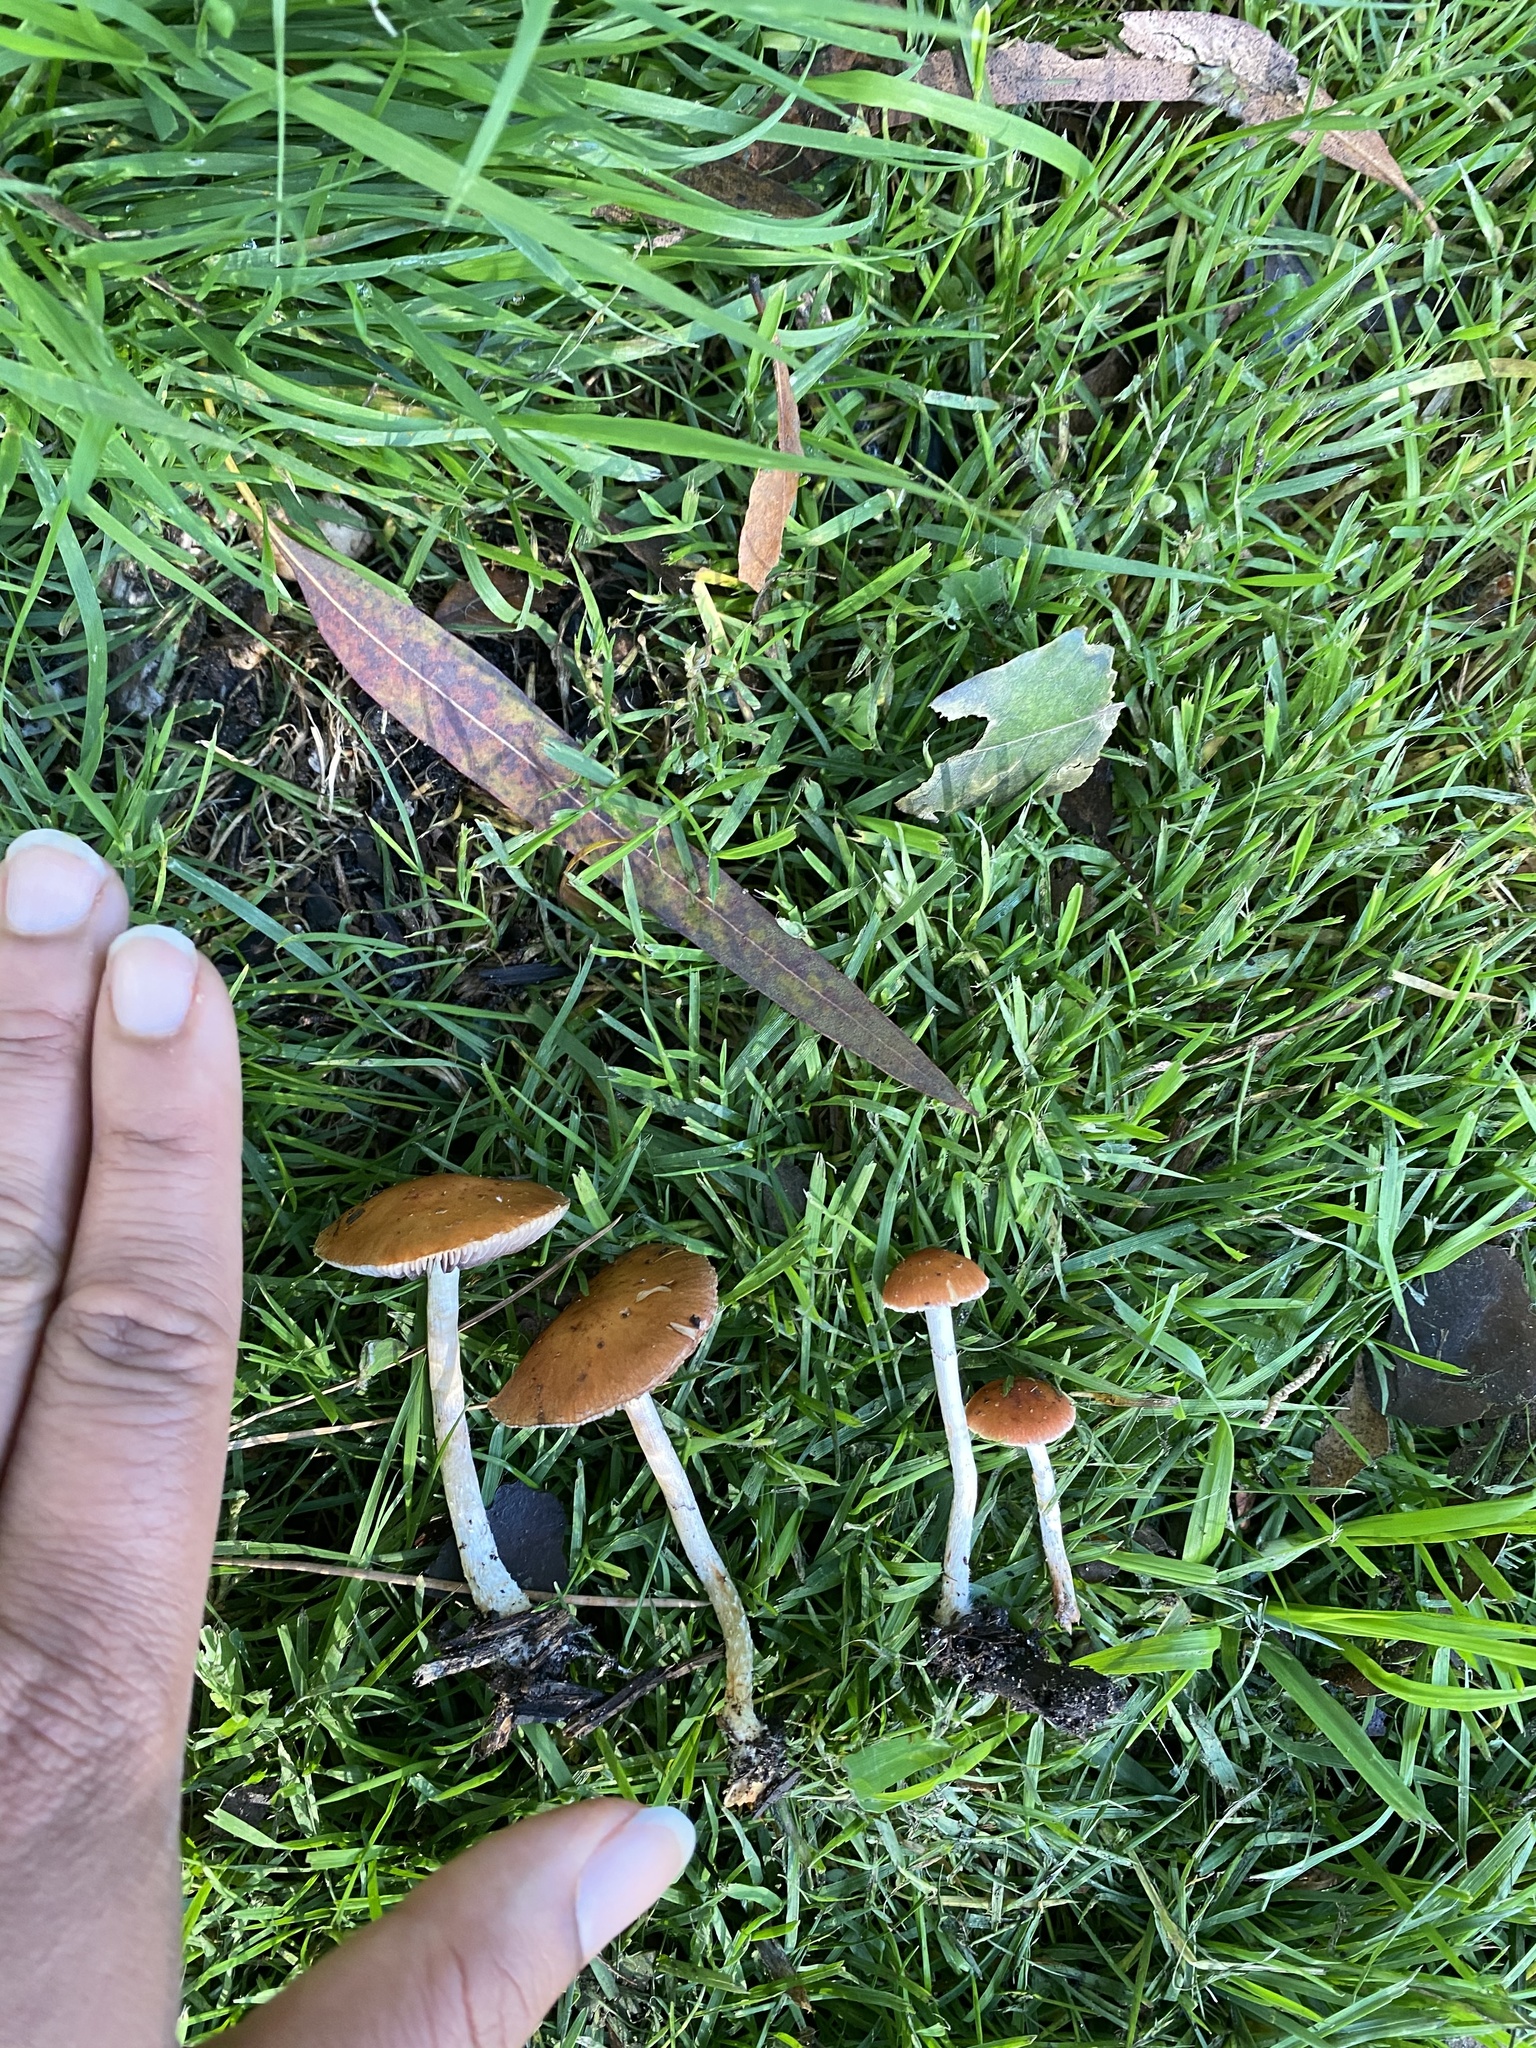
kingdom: Fungi
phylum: Basidiomycota
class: Agaricomycetes
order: Agaricales
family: Strophariaceae
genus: Leratiomyces
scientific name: Leratiomyces ceres
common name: Redlead roundhead
